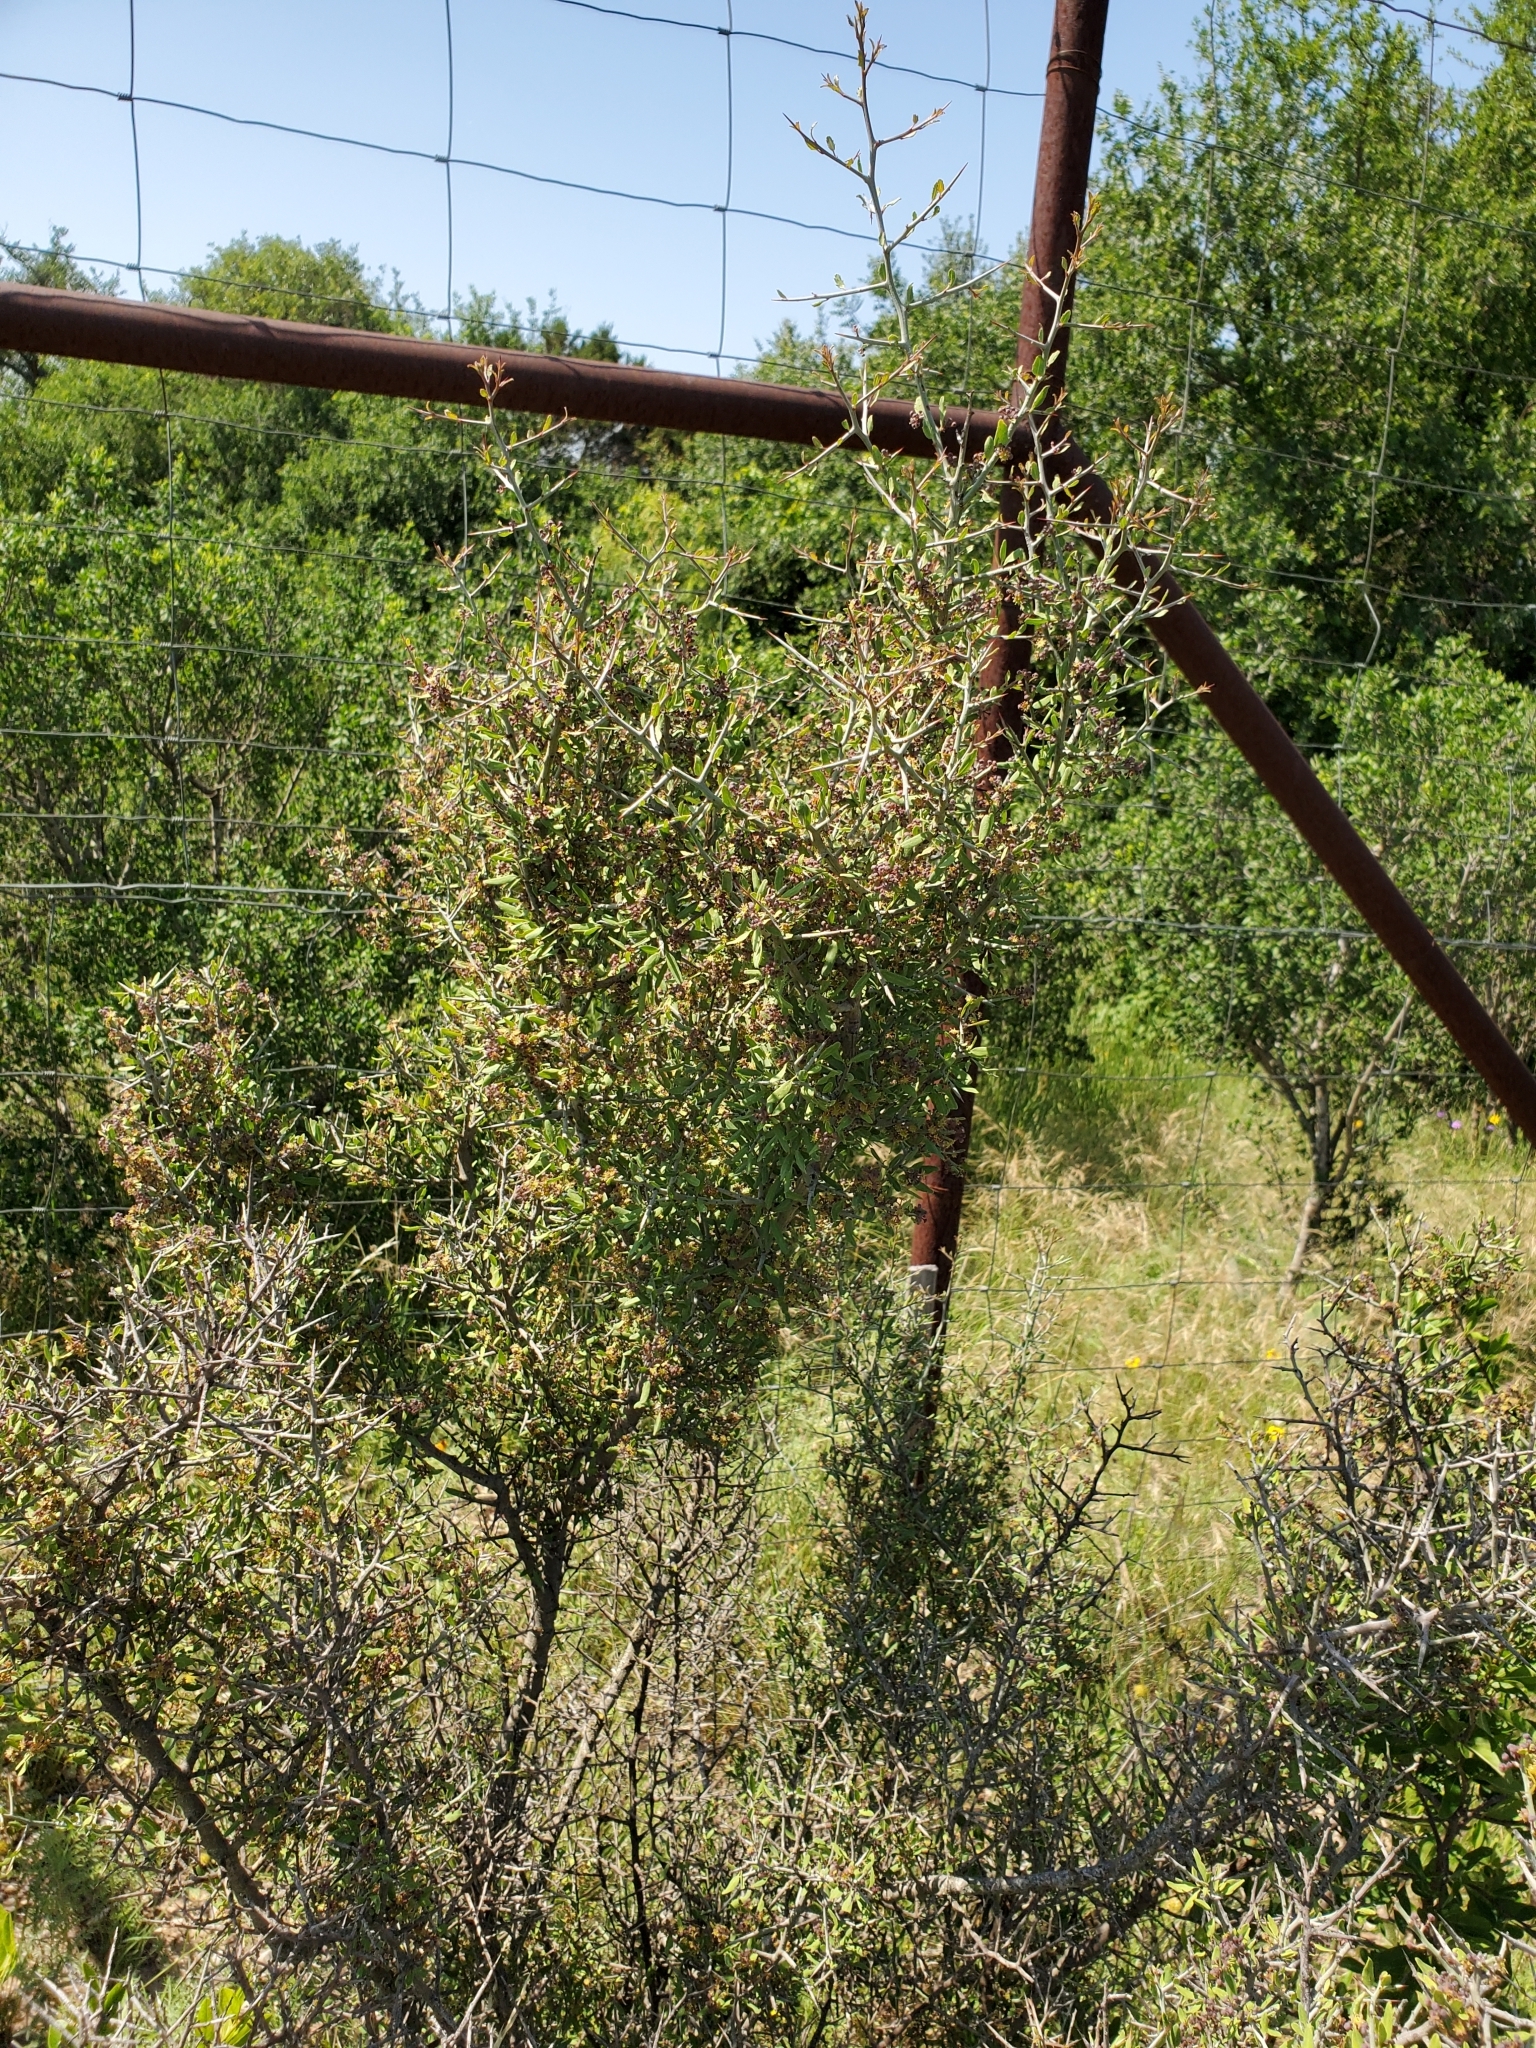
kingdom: Plantae
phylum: Tracheophyta
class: Magnoliopsida
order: Rosales
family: Rhamnaceae
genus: Sarcomphalus
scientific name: Sarcomphalus obtusifolius
